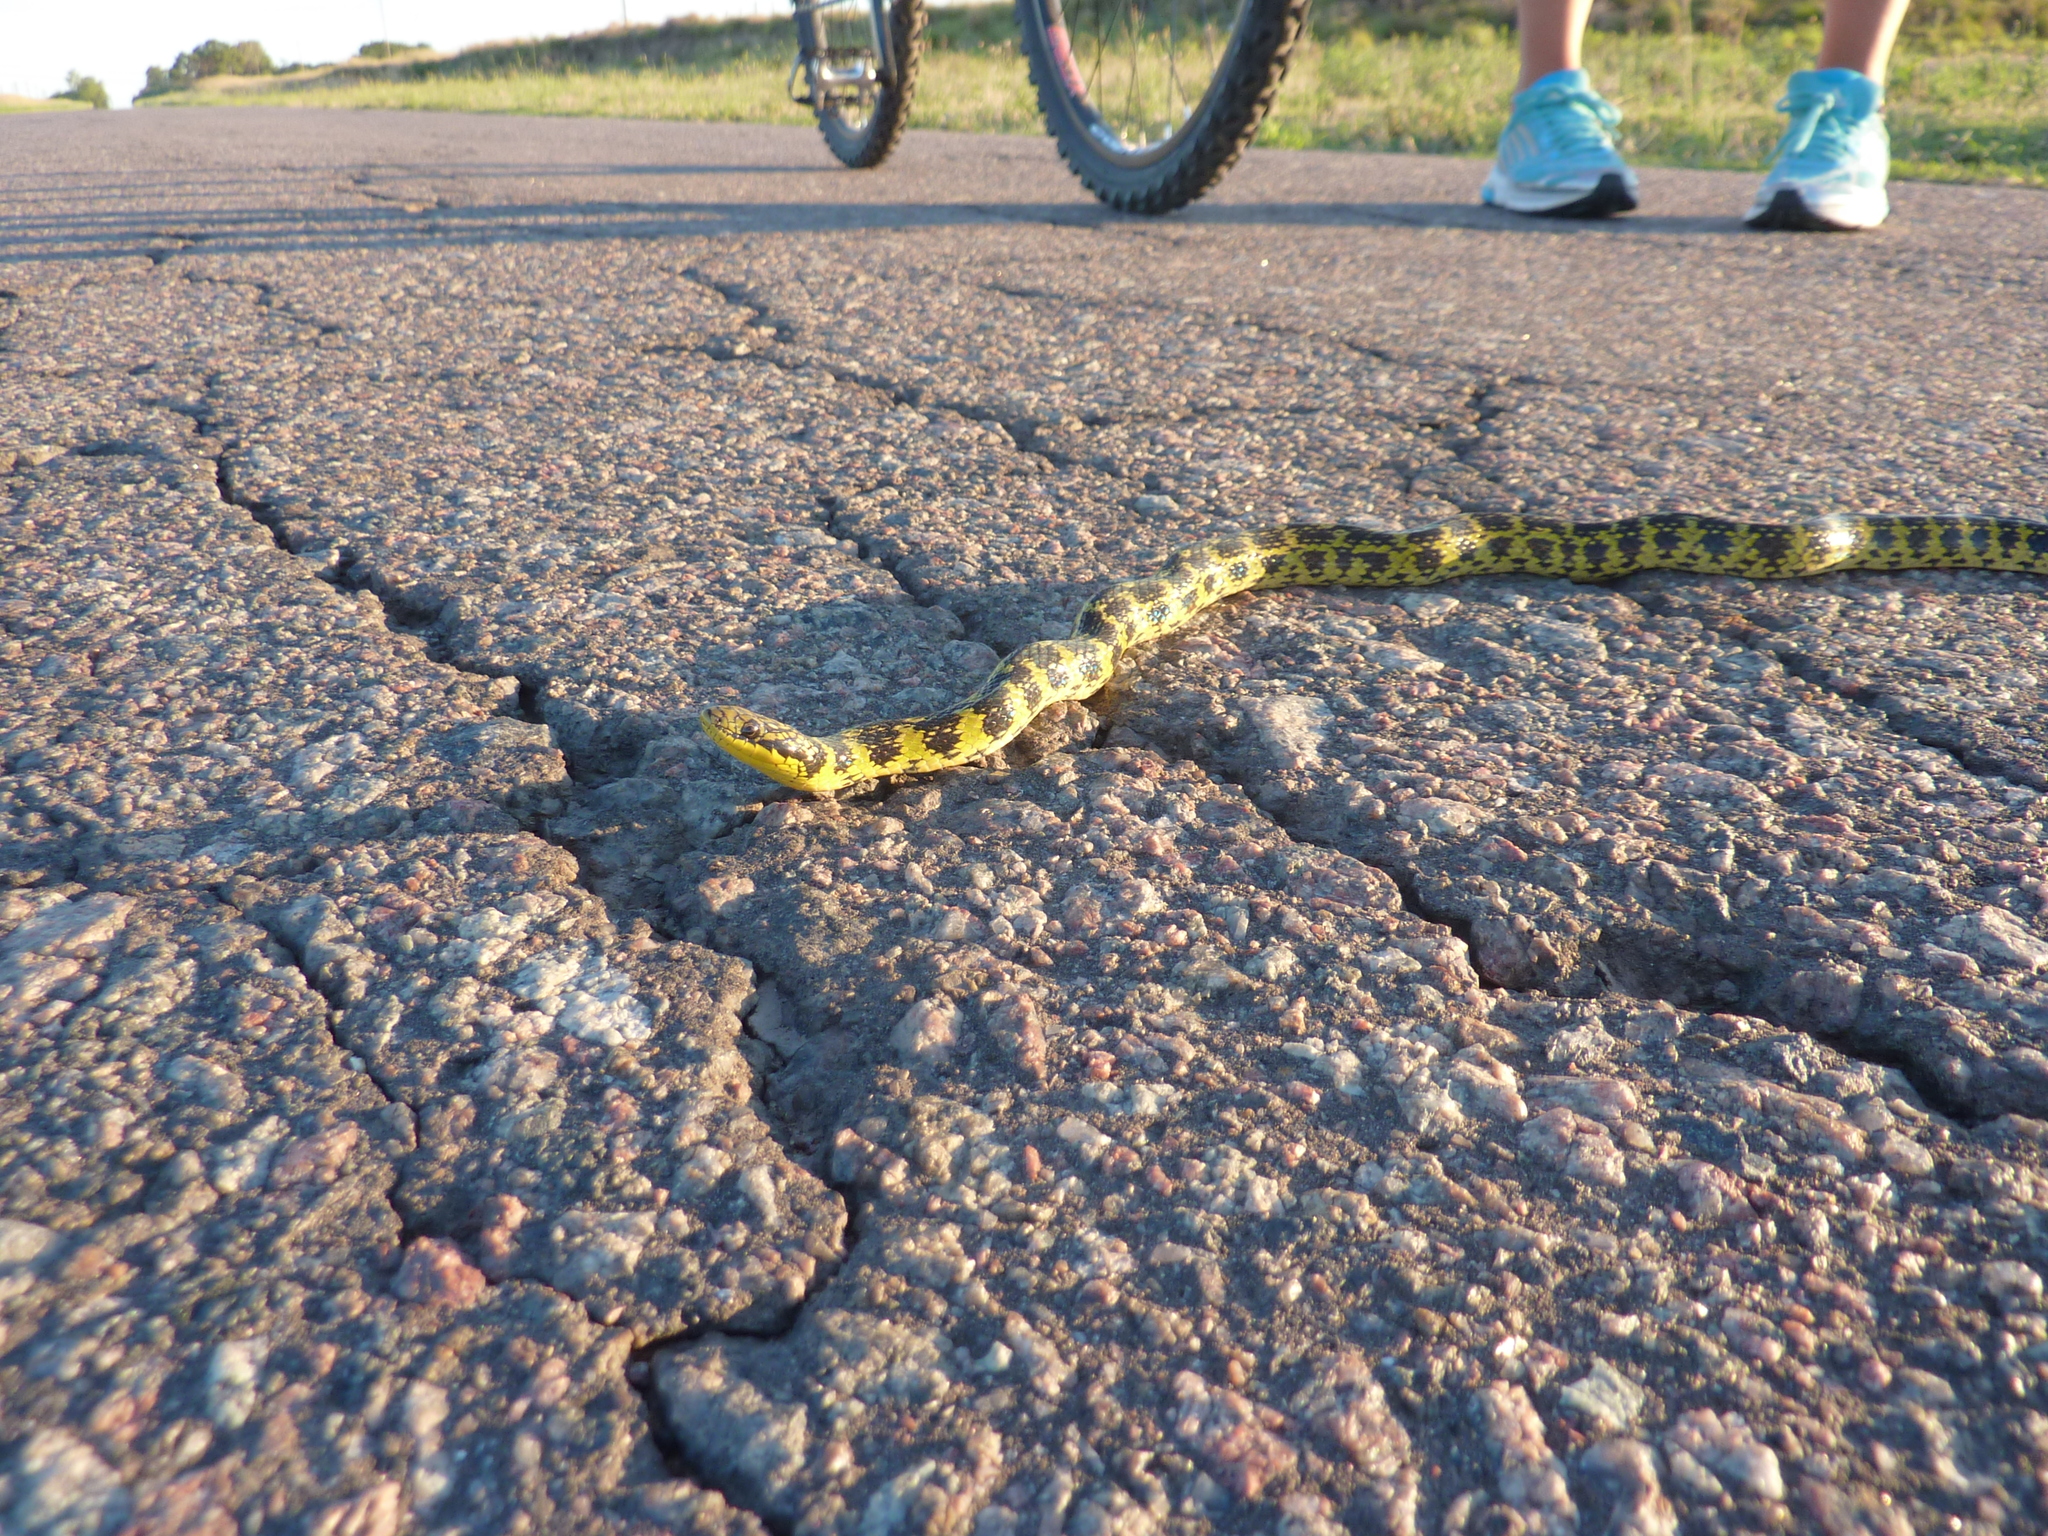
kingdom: Animalia
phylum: Chordata
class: Squamata
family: Colubridae
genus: Erythrolamprus
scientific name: Erythrolamprus poecilogyrus
